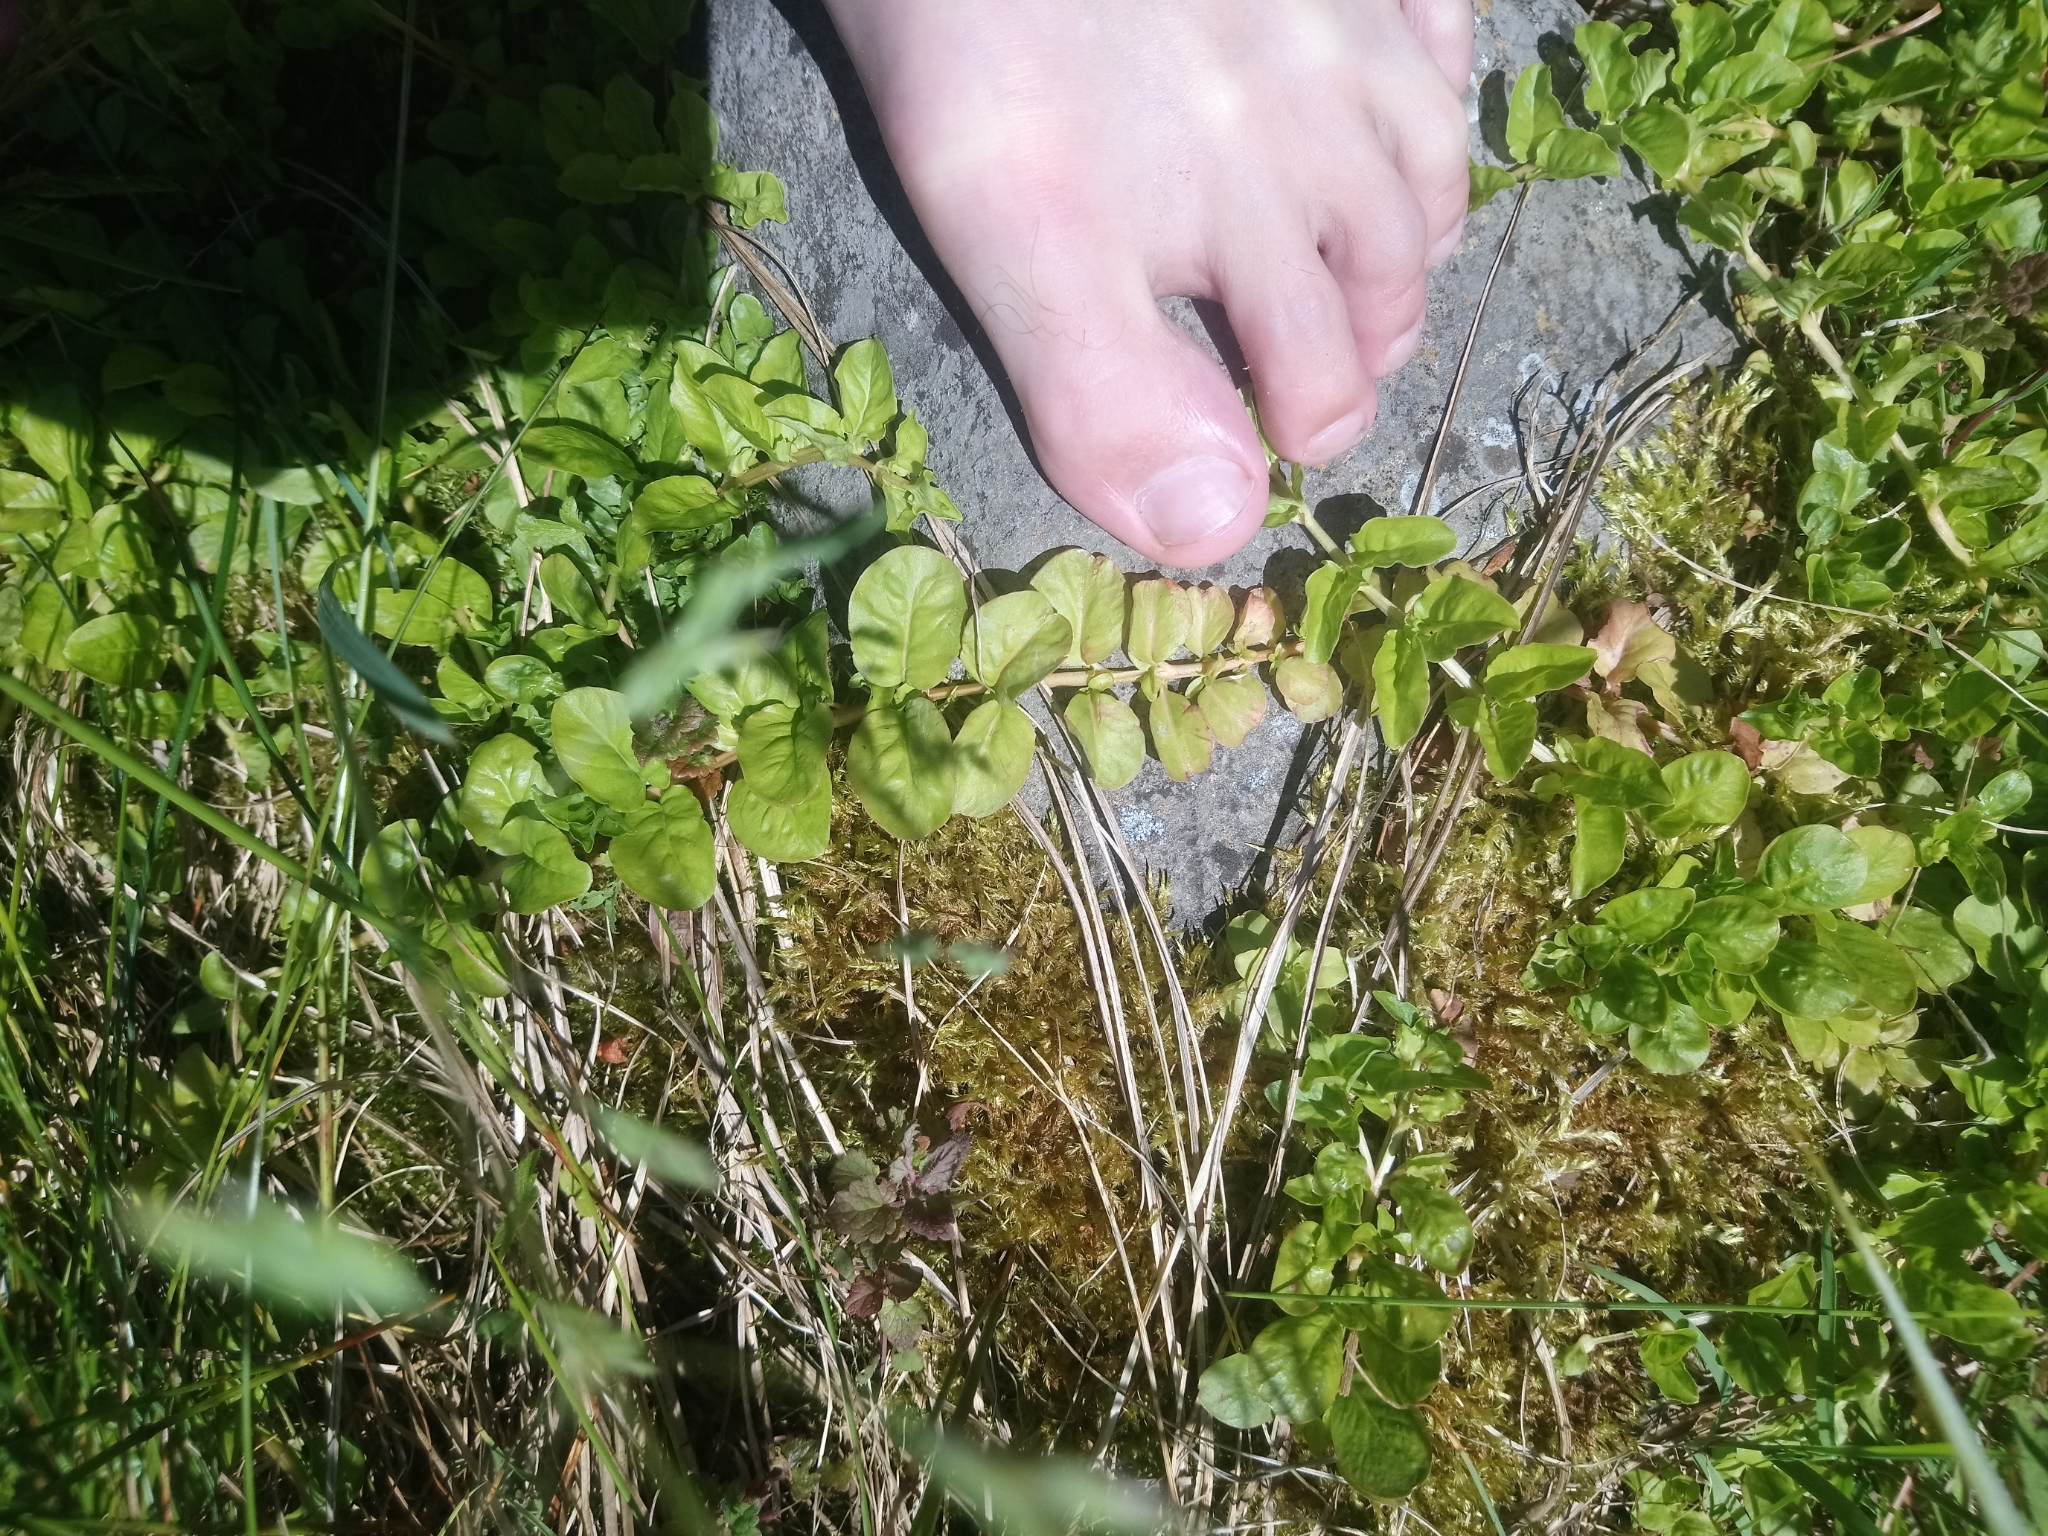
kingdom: Plantae
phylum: Tracheophyta
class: Magnoliopsida
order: Ericales
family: Primulaceae
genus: Lysimachia
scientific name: Lysimachia nummularia
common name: Moneywort
